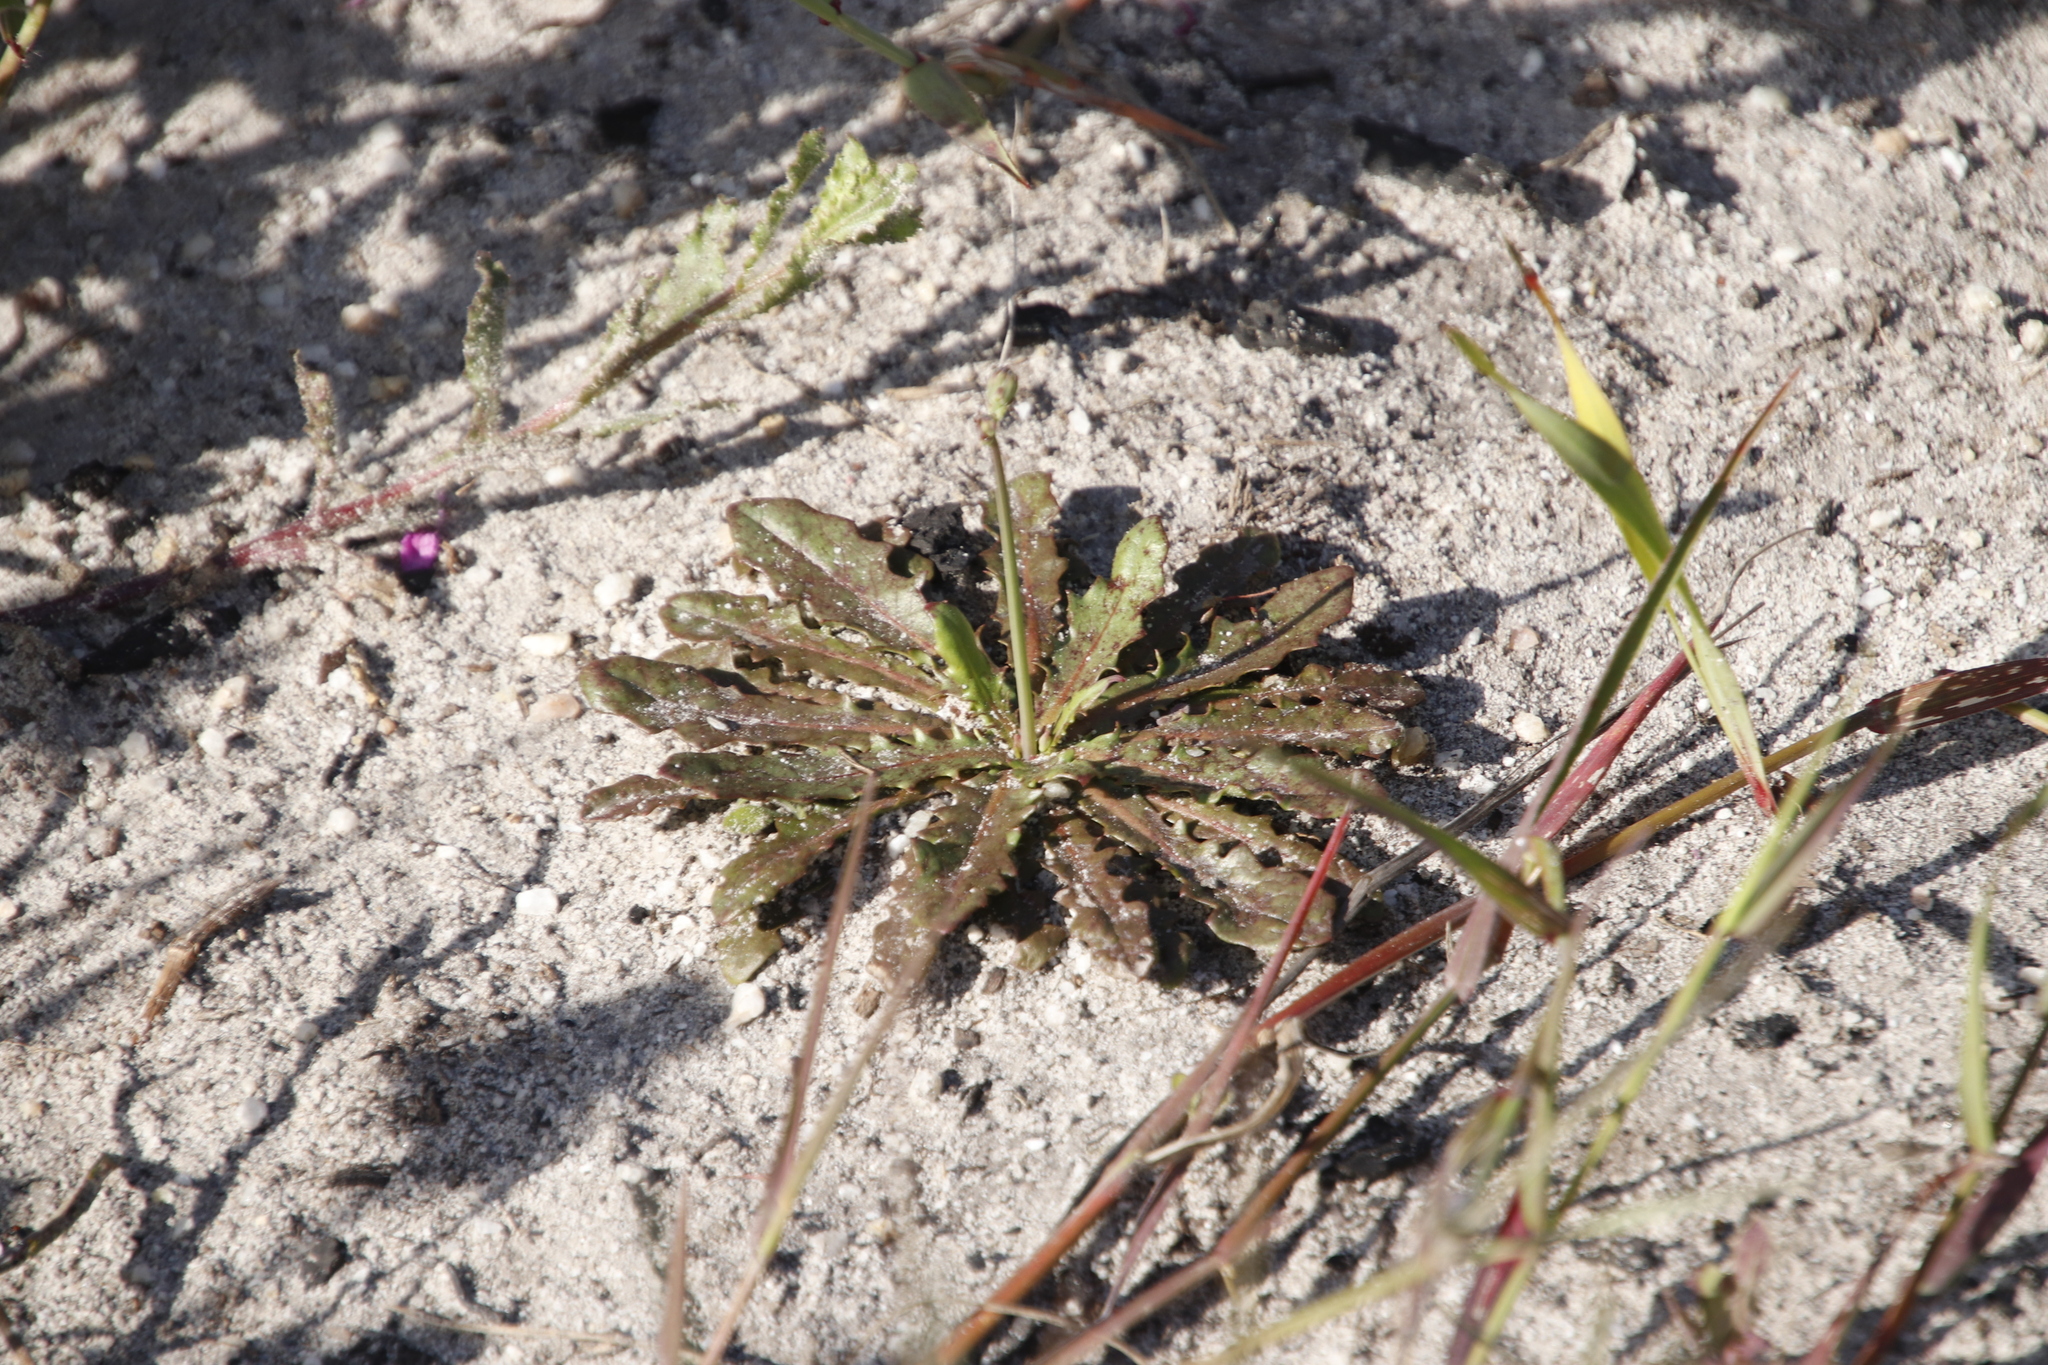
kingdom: Plantae
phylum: Tracheophyta
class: Magnoliopsida
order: Asterales
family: Asteraceae
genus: Hypochaeris
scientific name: Hypochaeris glabra
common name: Smooth catsear
